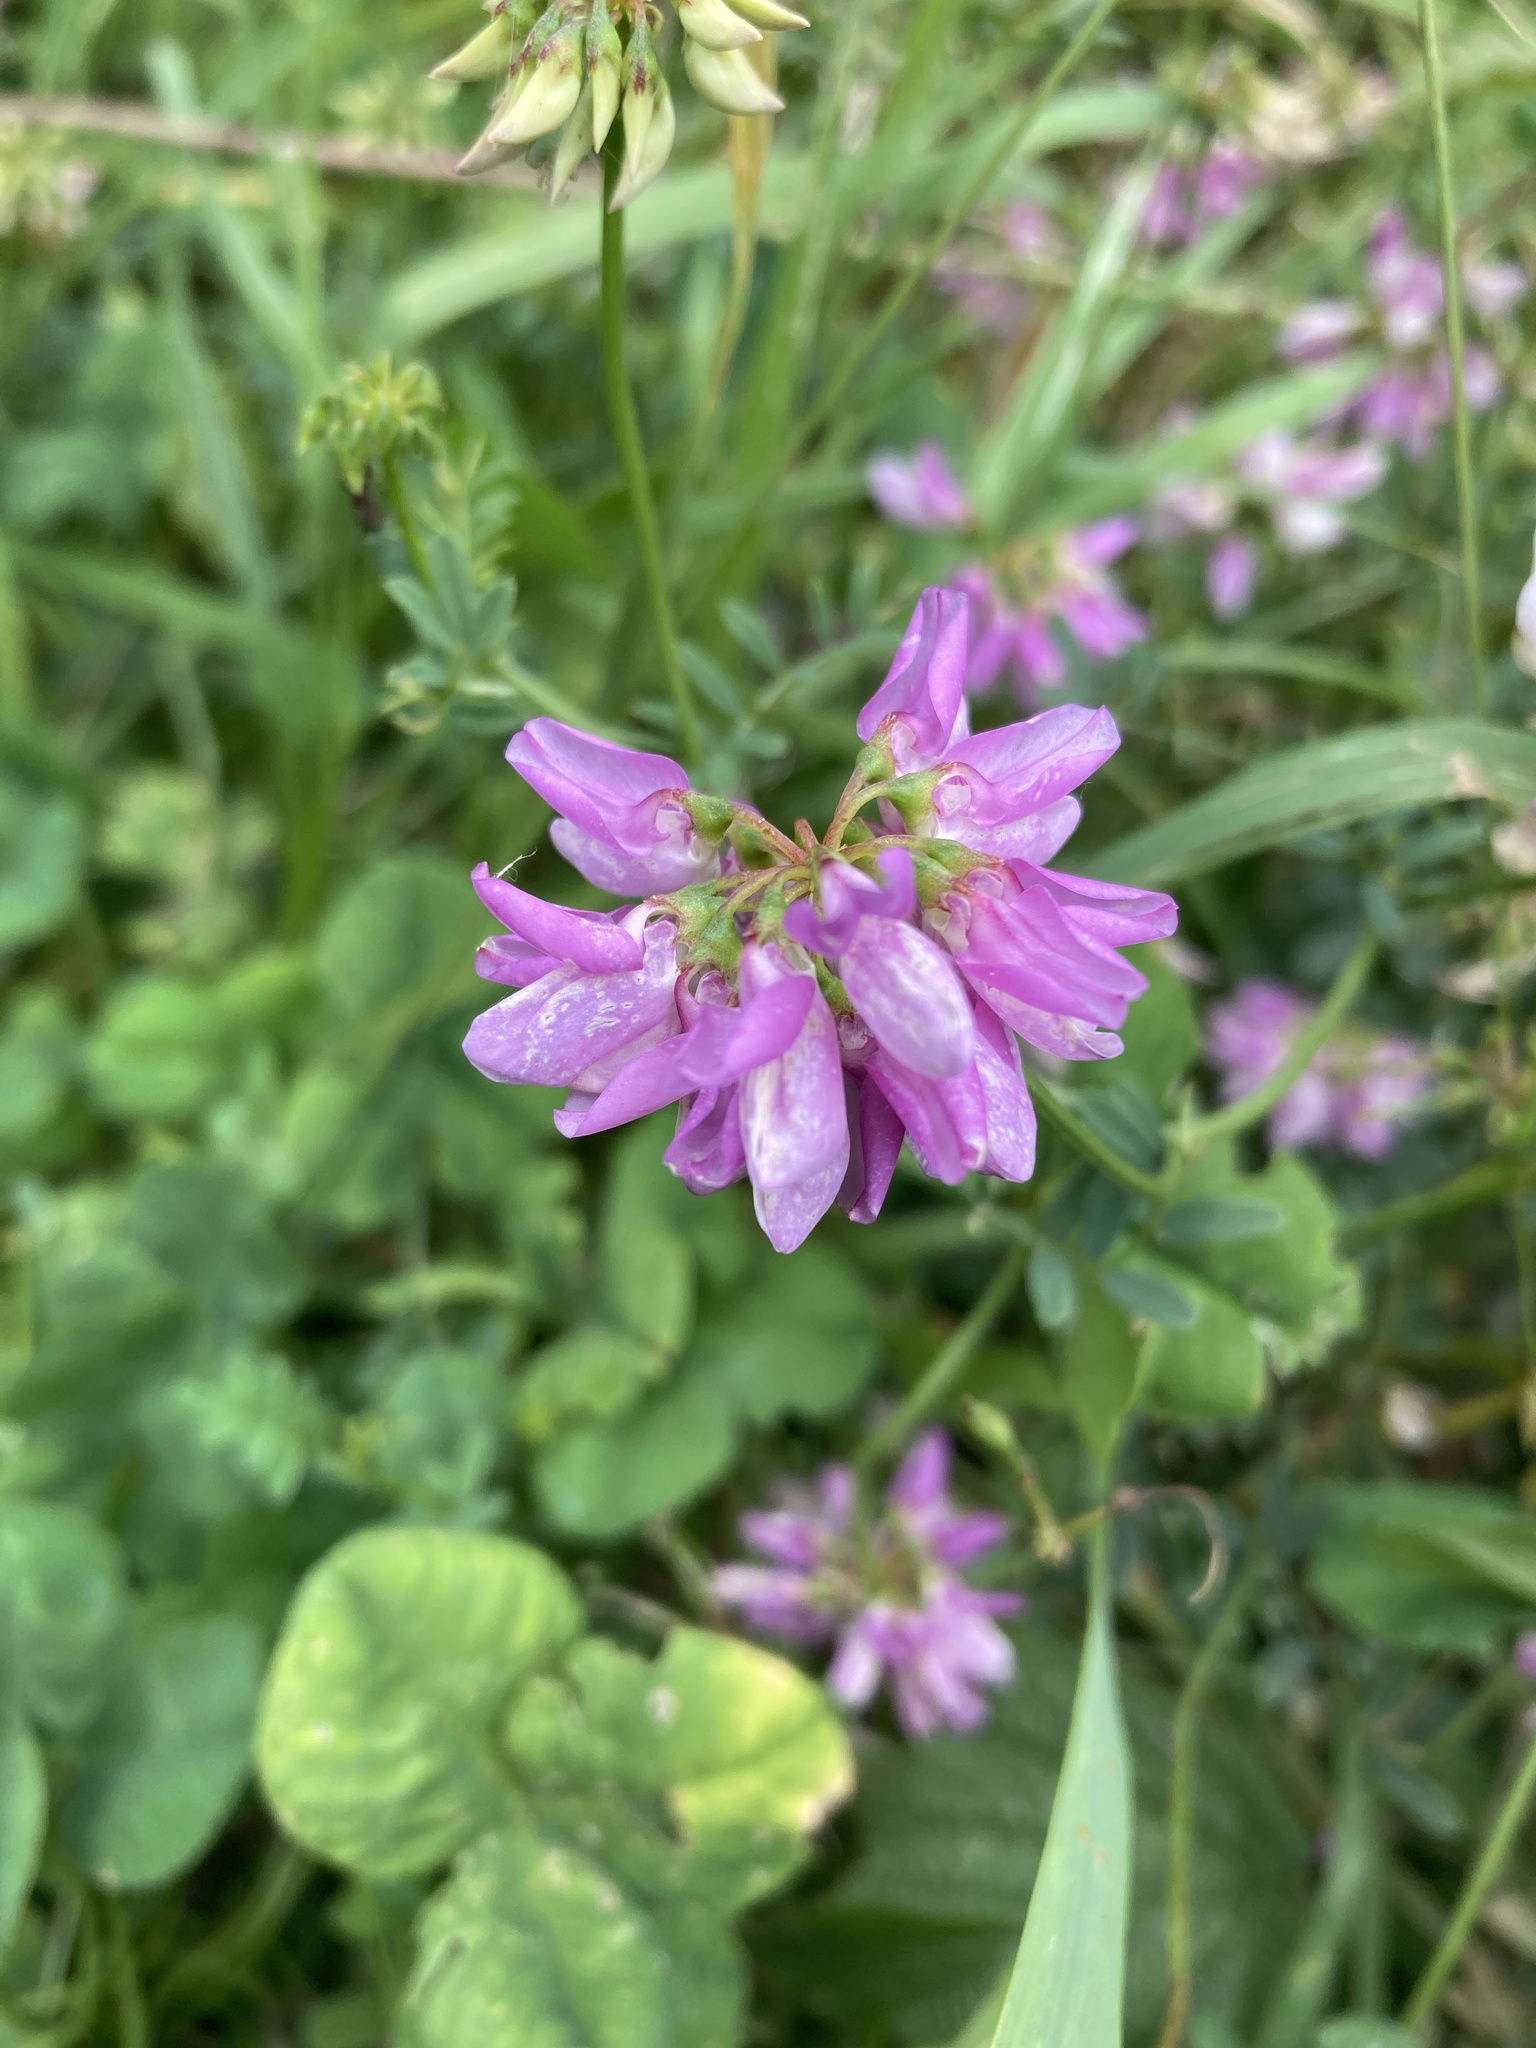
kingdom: Plantae
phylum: Tracheophyta
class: Magnoliopsida
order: Fabales
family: Fabaceae
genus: Coronilla
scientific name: Coronilla varia
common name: Crownvetch
